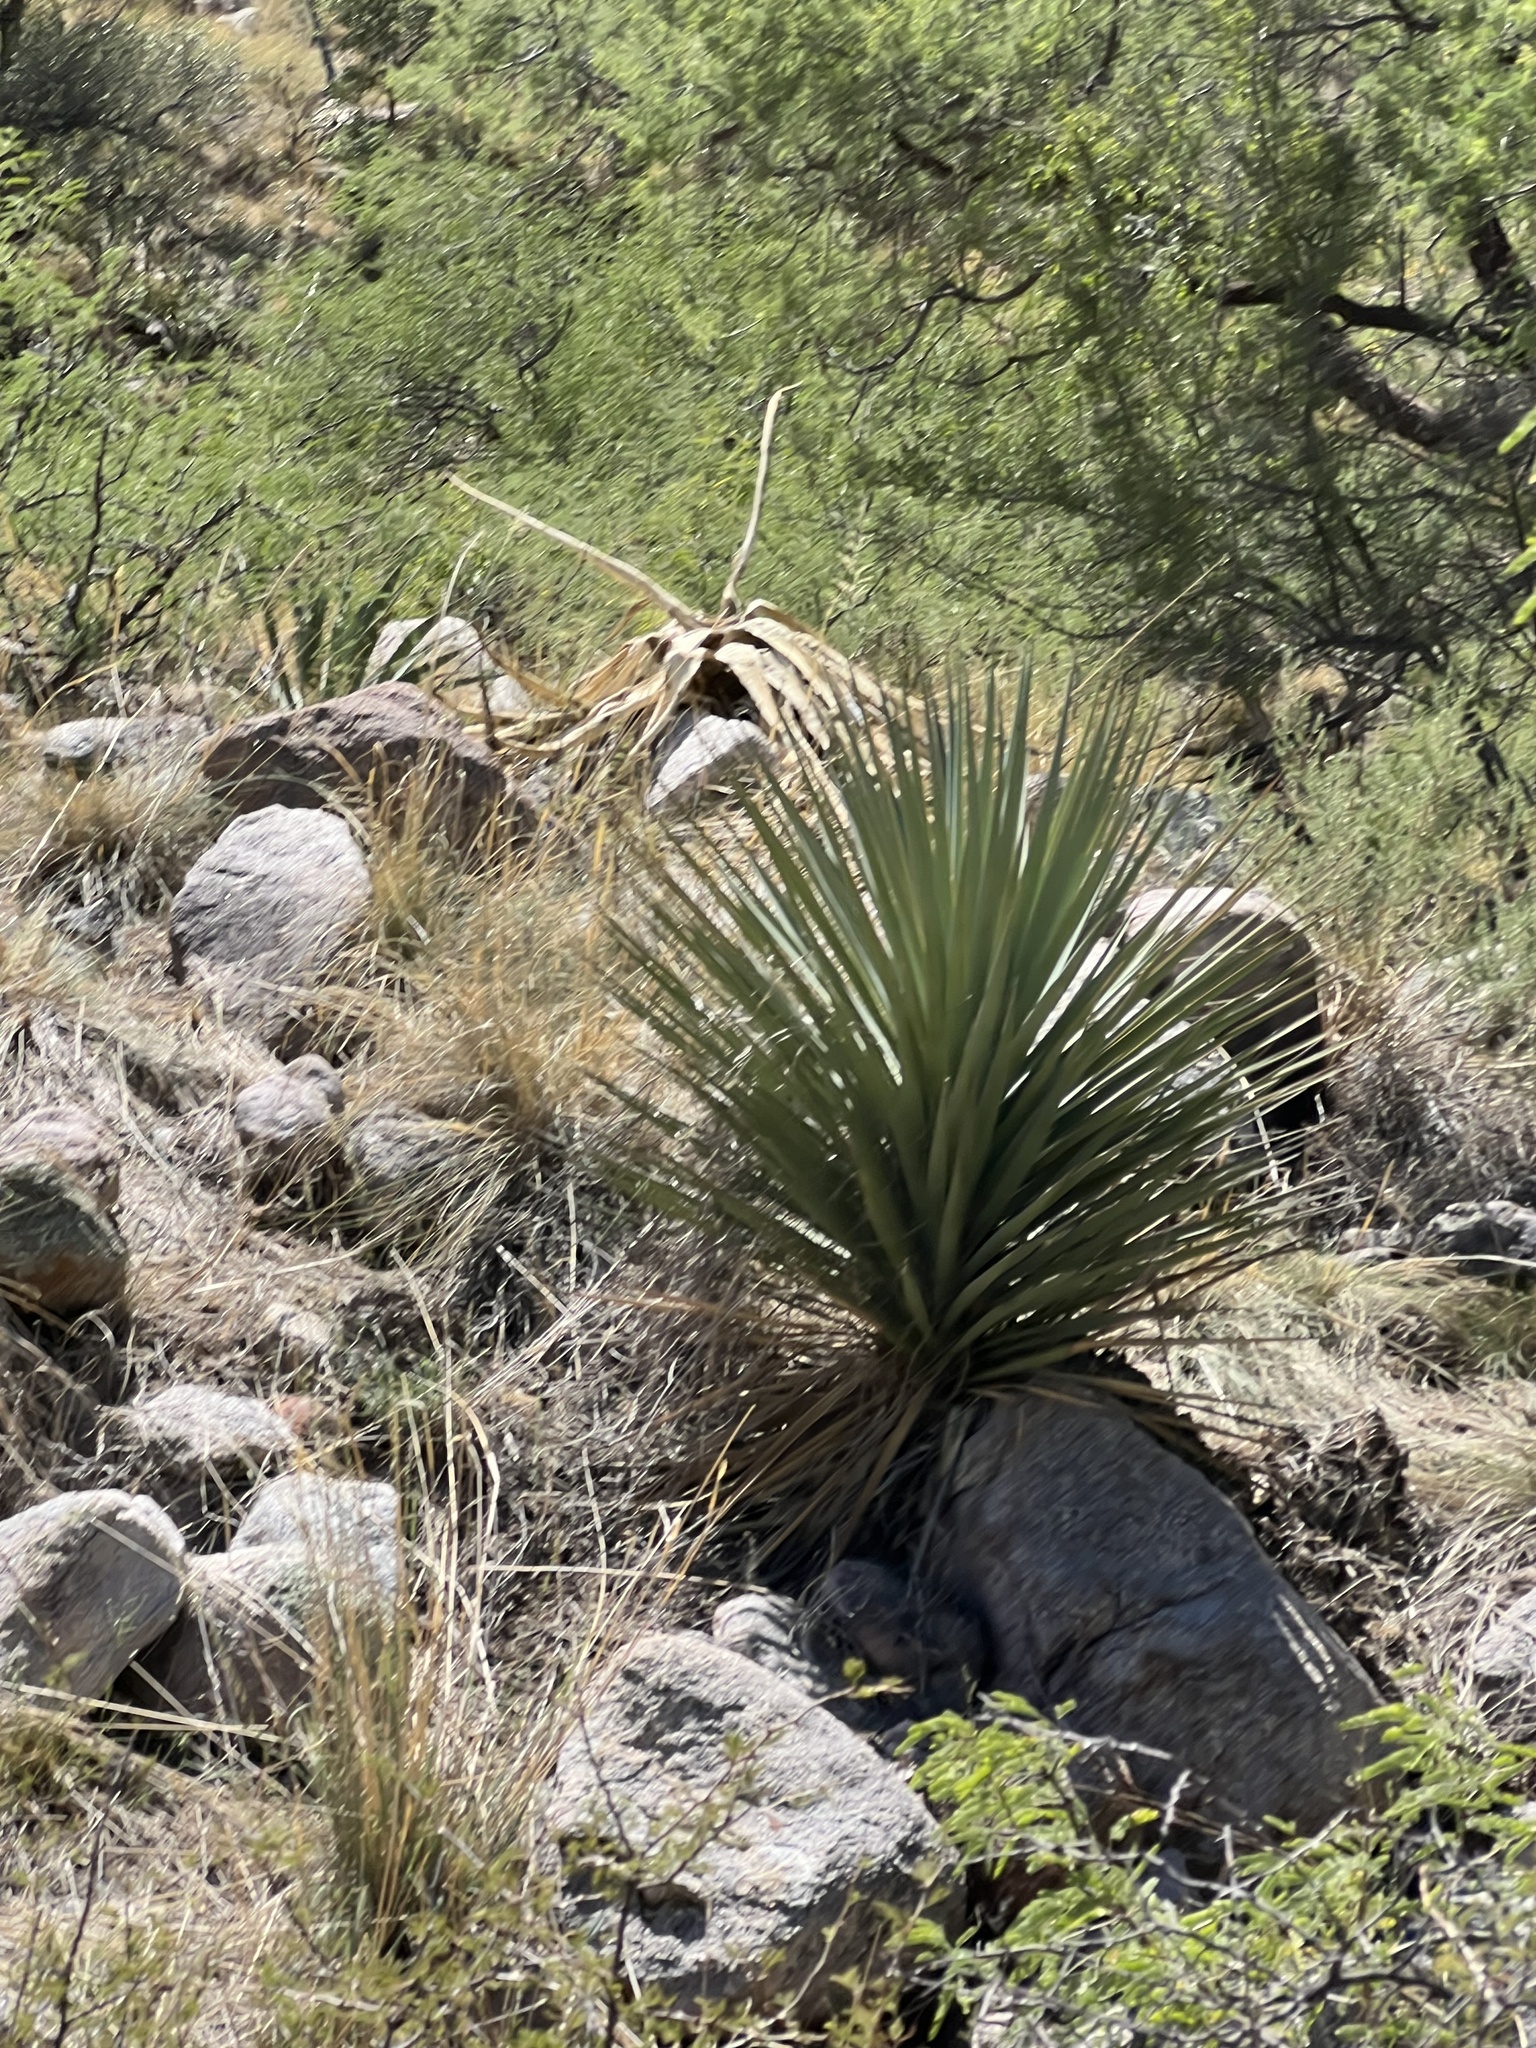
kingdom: Plantae
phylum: Tracheophyta
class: Liliopsida
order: Asparagales
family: Asparagaceae
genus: Yucca
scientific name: Yucca schottii
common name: Hoary yucca
